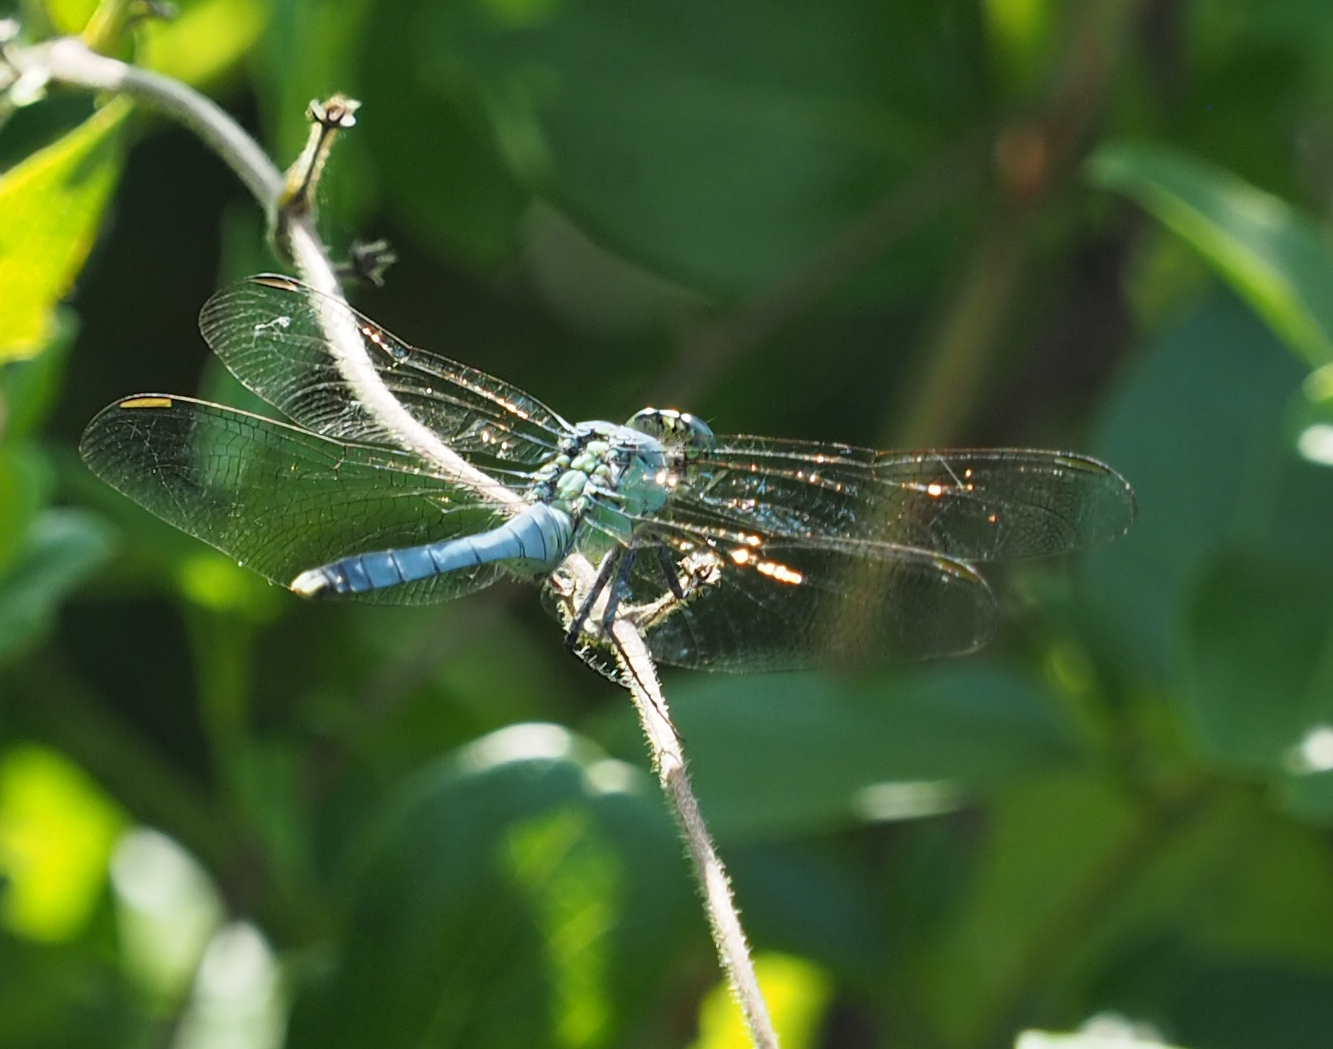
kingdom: Animalia
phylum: Arthropoda
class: Insecta
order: Odonata
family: Libellulidae
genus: Erythemis
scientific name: Erythemis simplicicollis
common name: Eastern pondhawk
